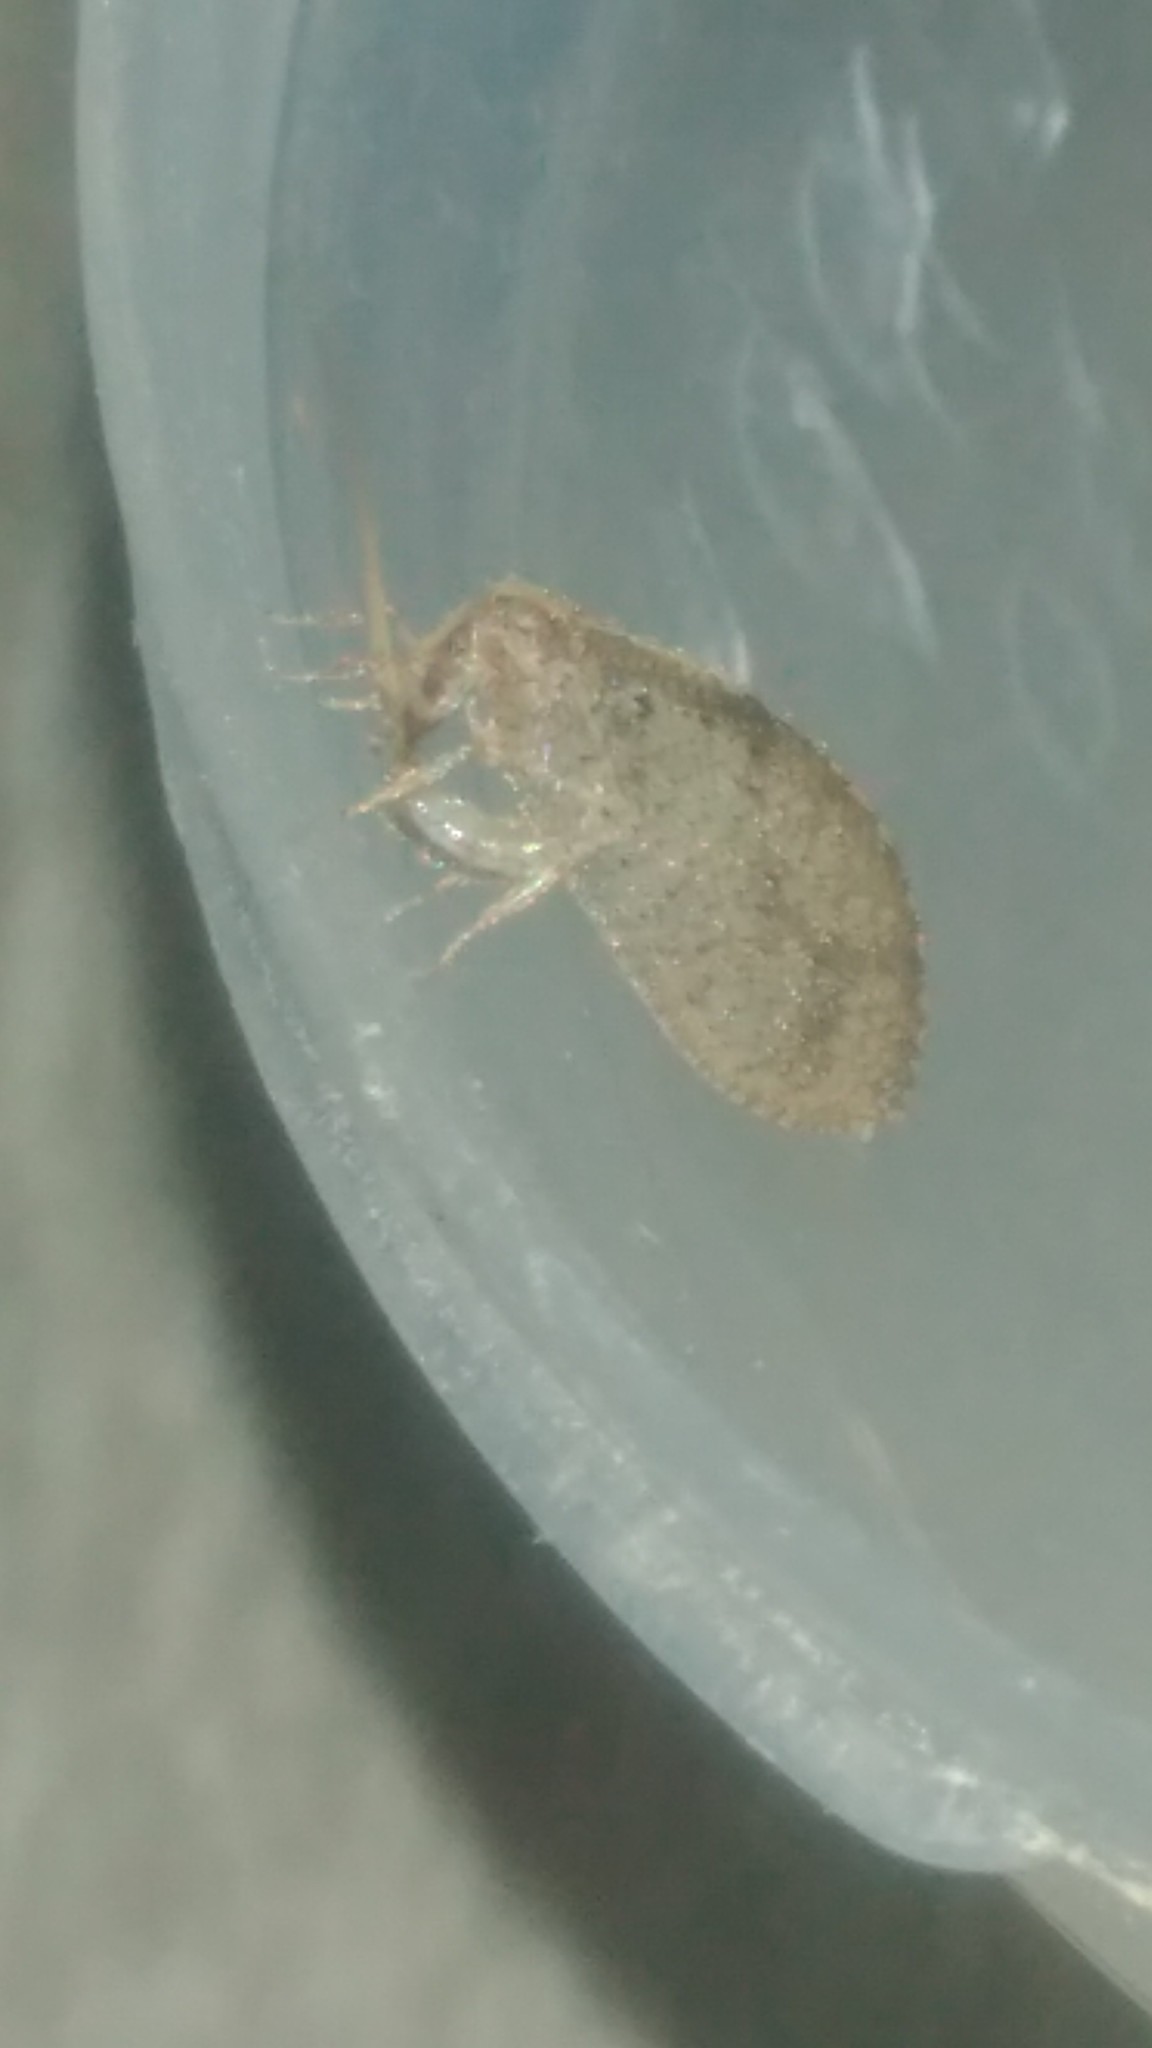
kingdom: Animalia
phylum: Arthropoda
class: Insecta
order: Neuroptera
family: Hemerobiidae
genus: Hemerobius
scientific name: Hemerobius bolivari
